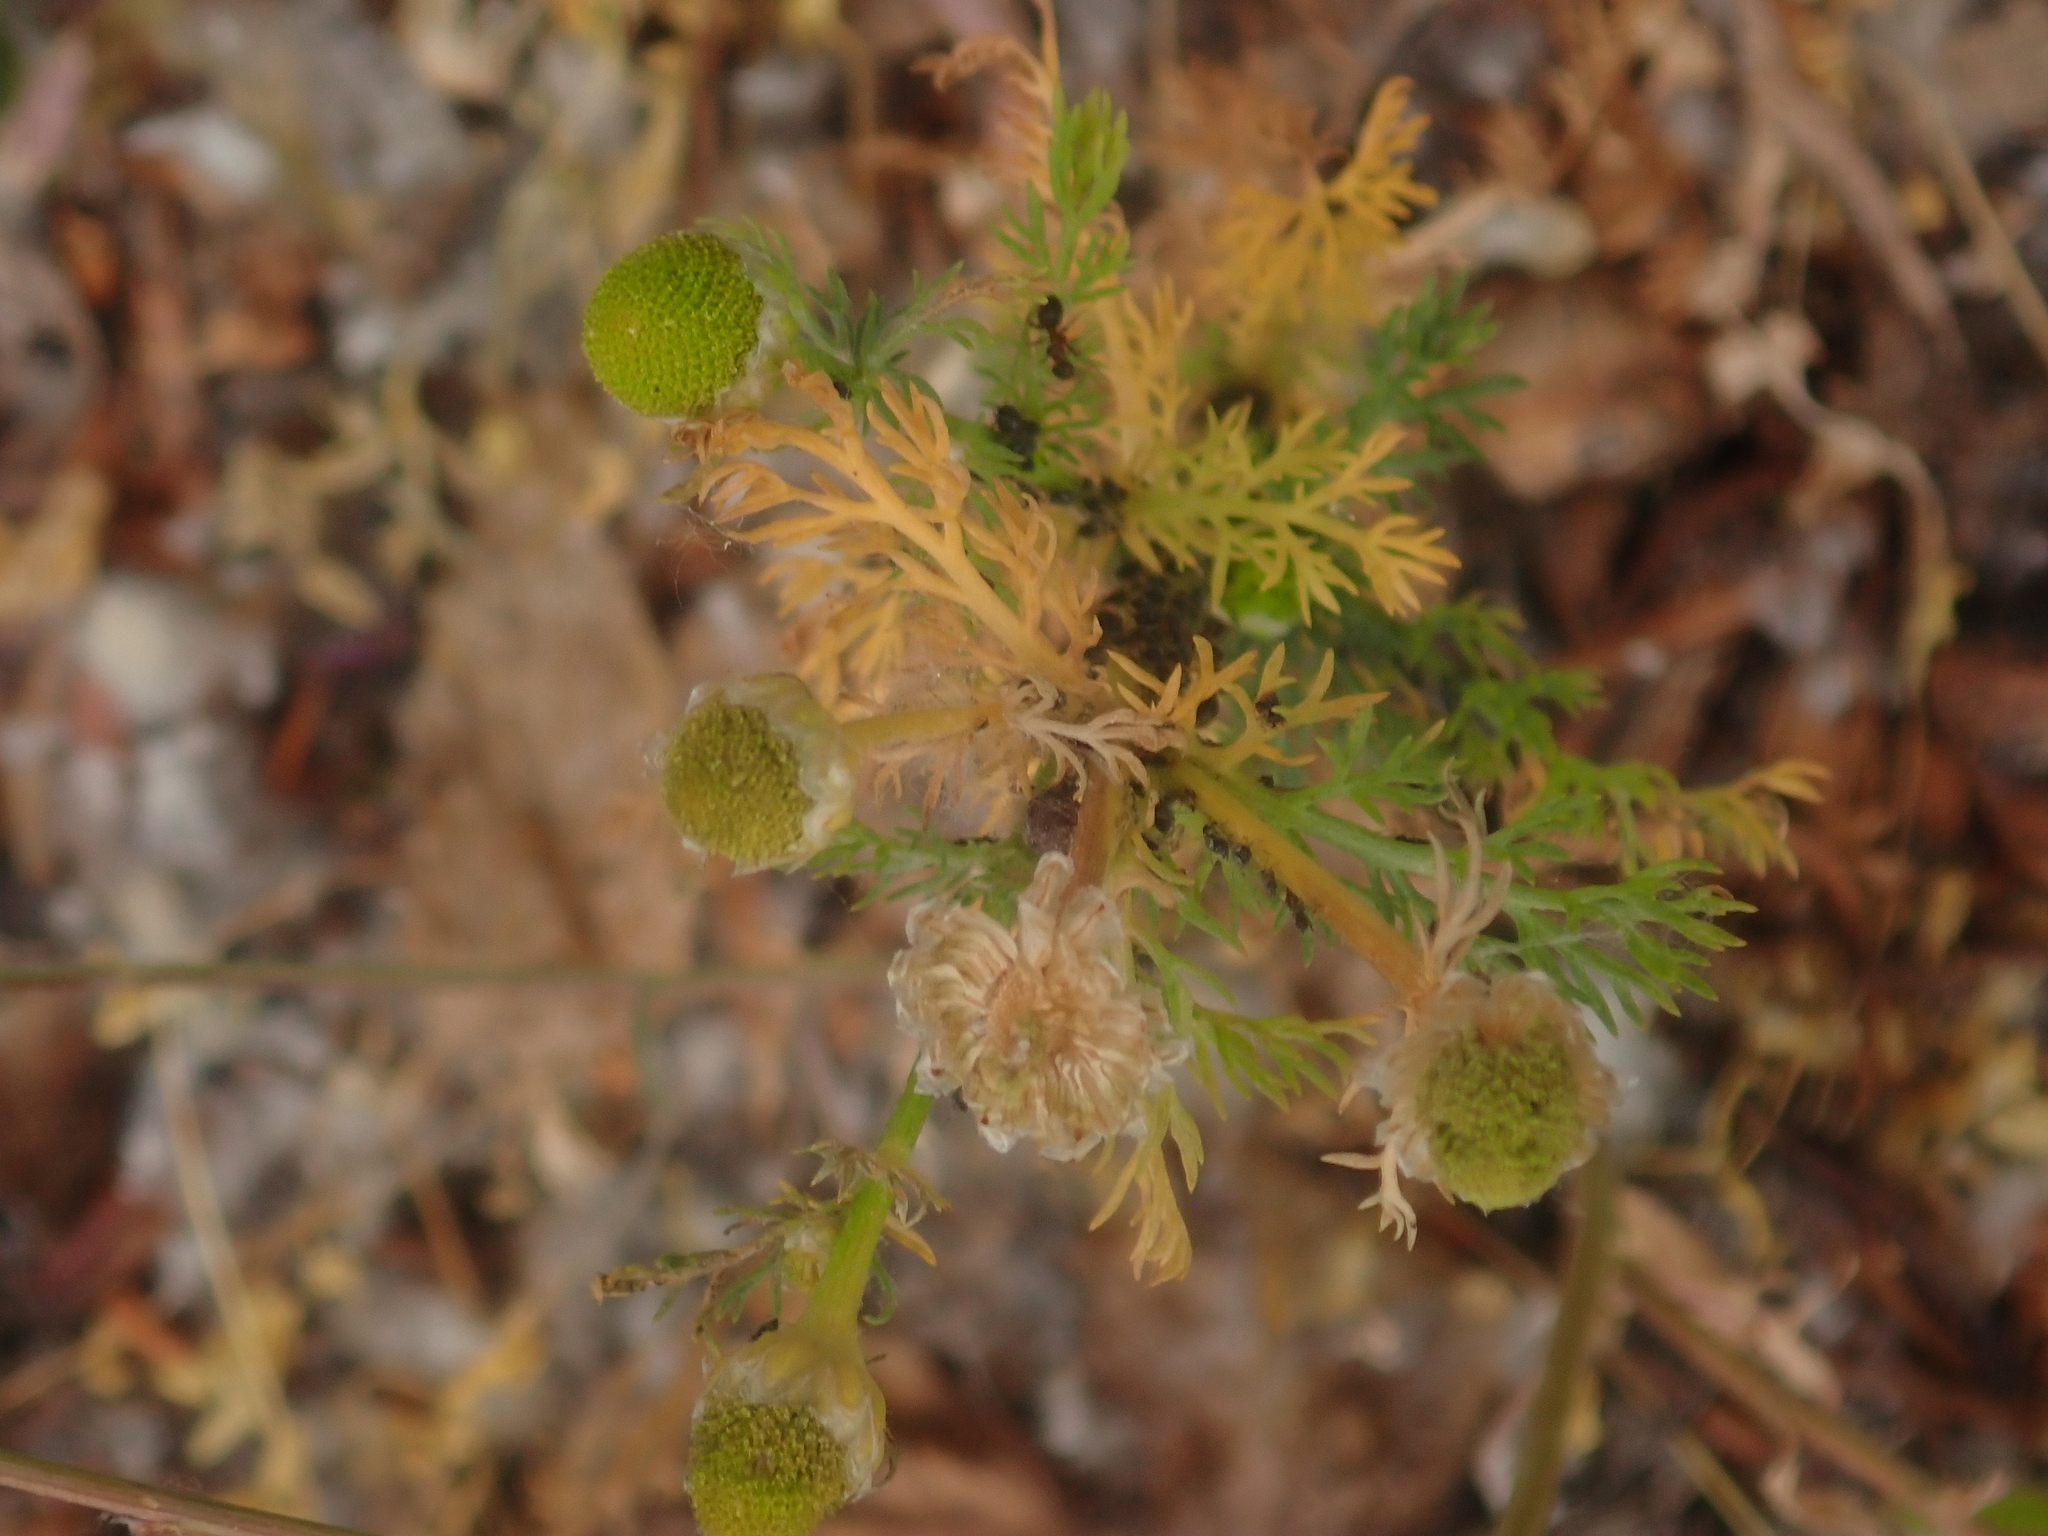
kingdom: Plantae
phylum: Tracheophyta
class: Magnoliopsida
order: Asterales
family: Asteraceae
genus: Matricaria
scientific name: Matricaria discoidea
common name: Disc mayweed
